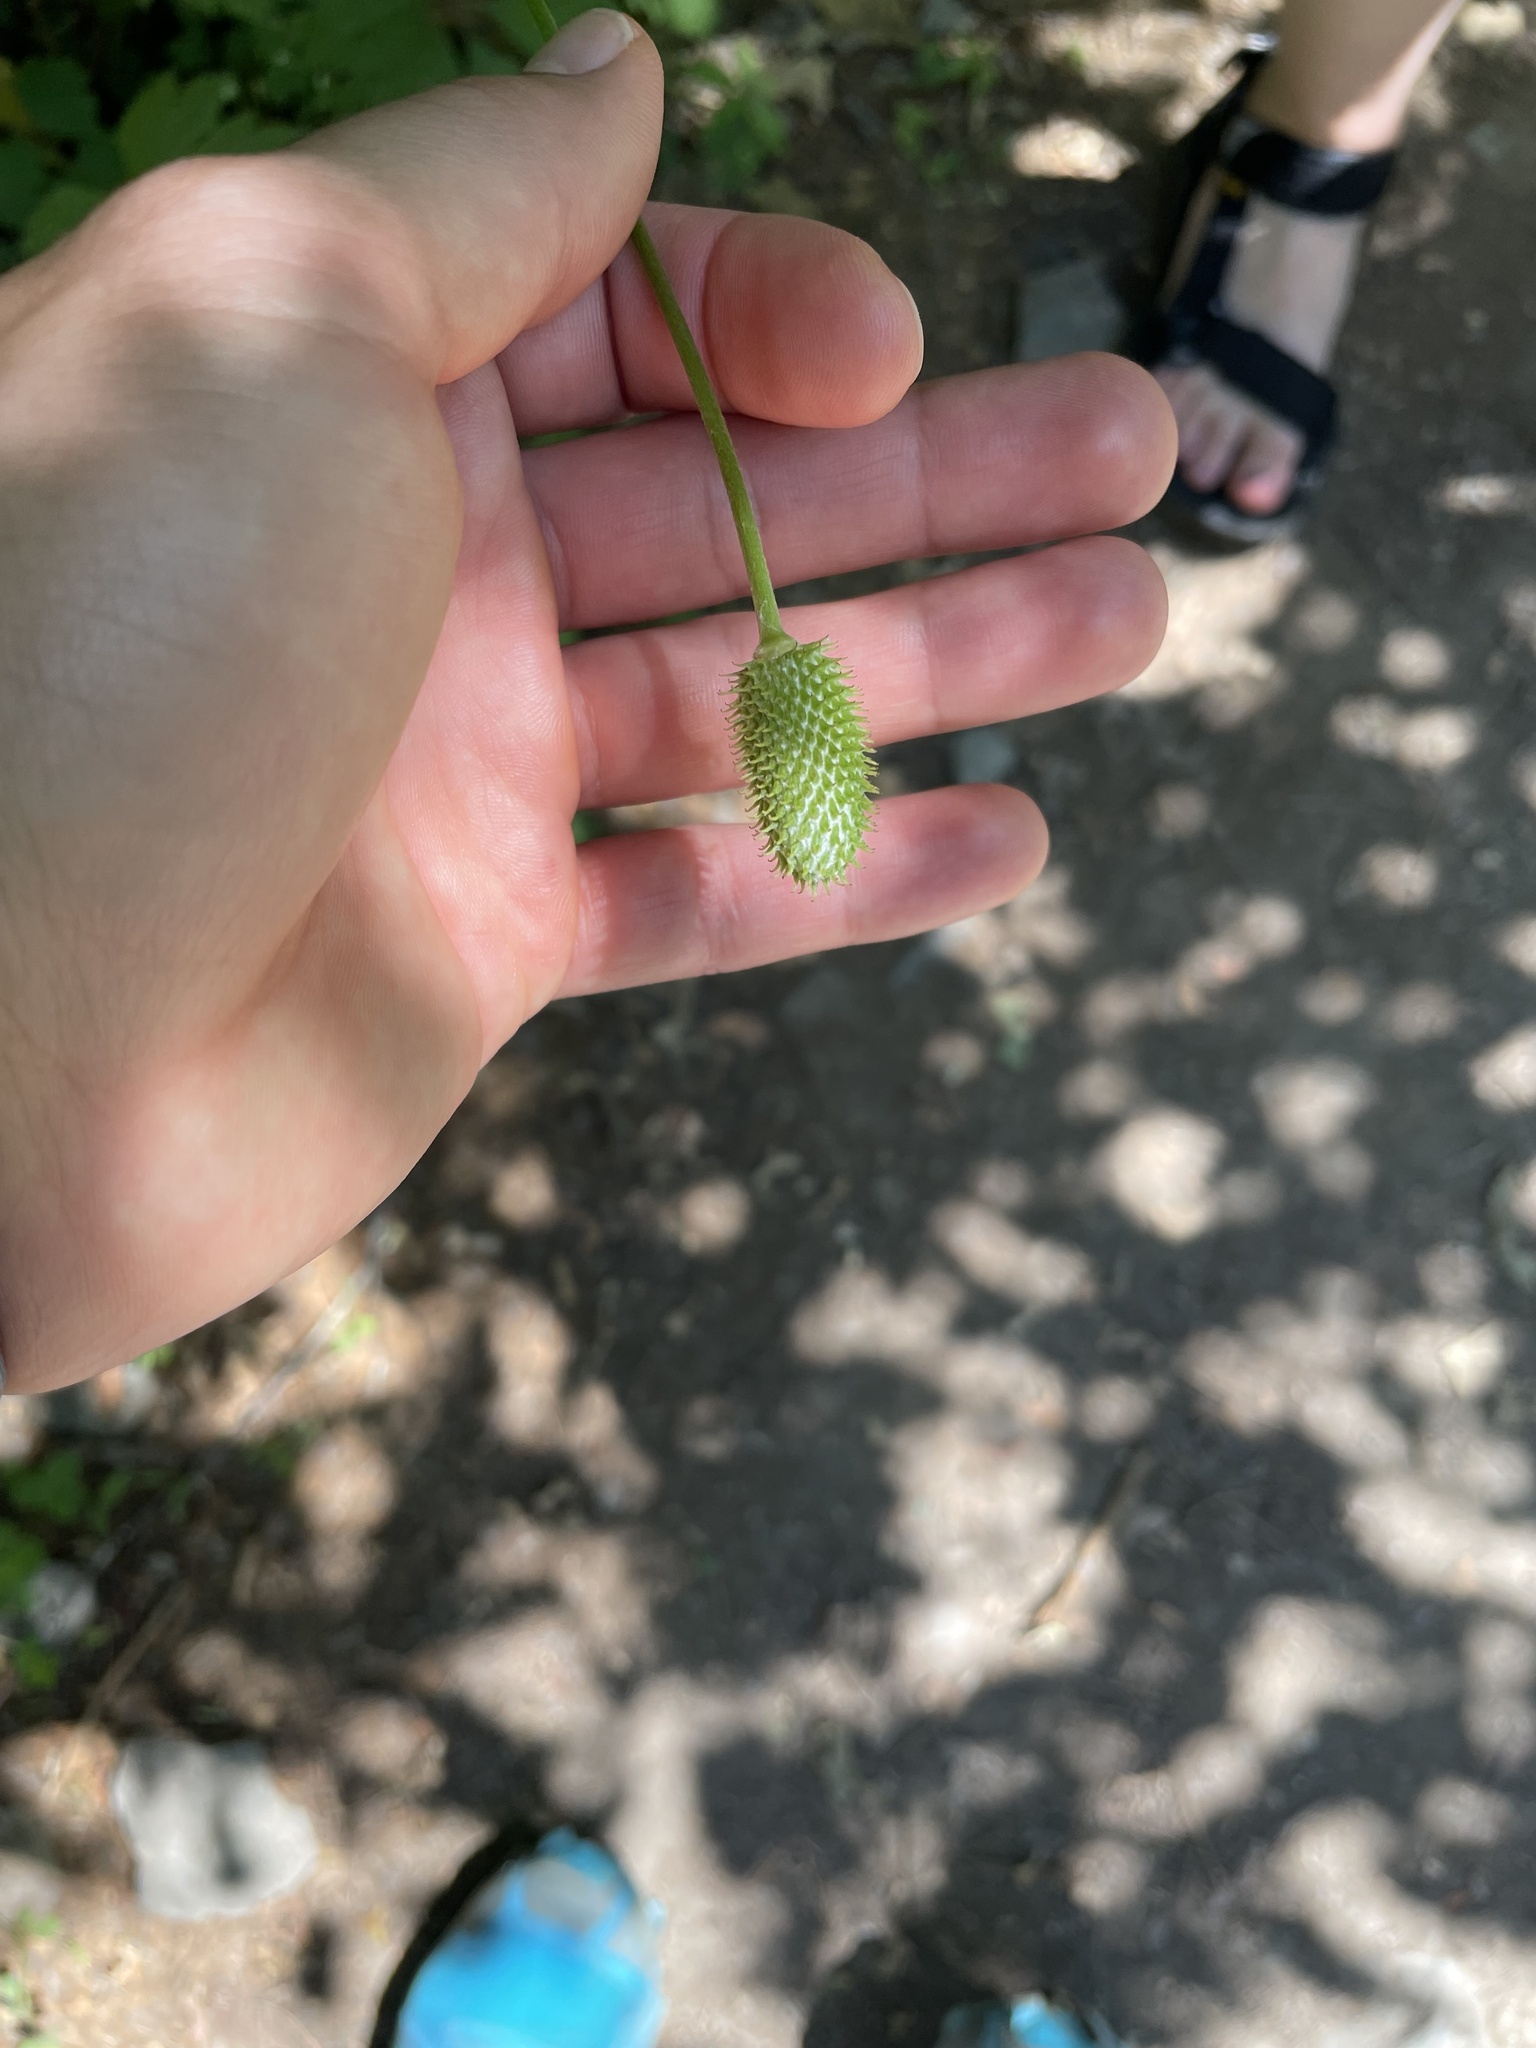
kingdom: Plantae
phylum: Tracheophyta
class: Magnoliopsida
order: Ranunculales
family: Ranunculaceae
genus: Anemone
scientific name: Anemone virginiana
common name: Tall anemone
